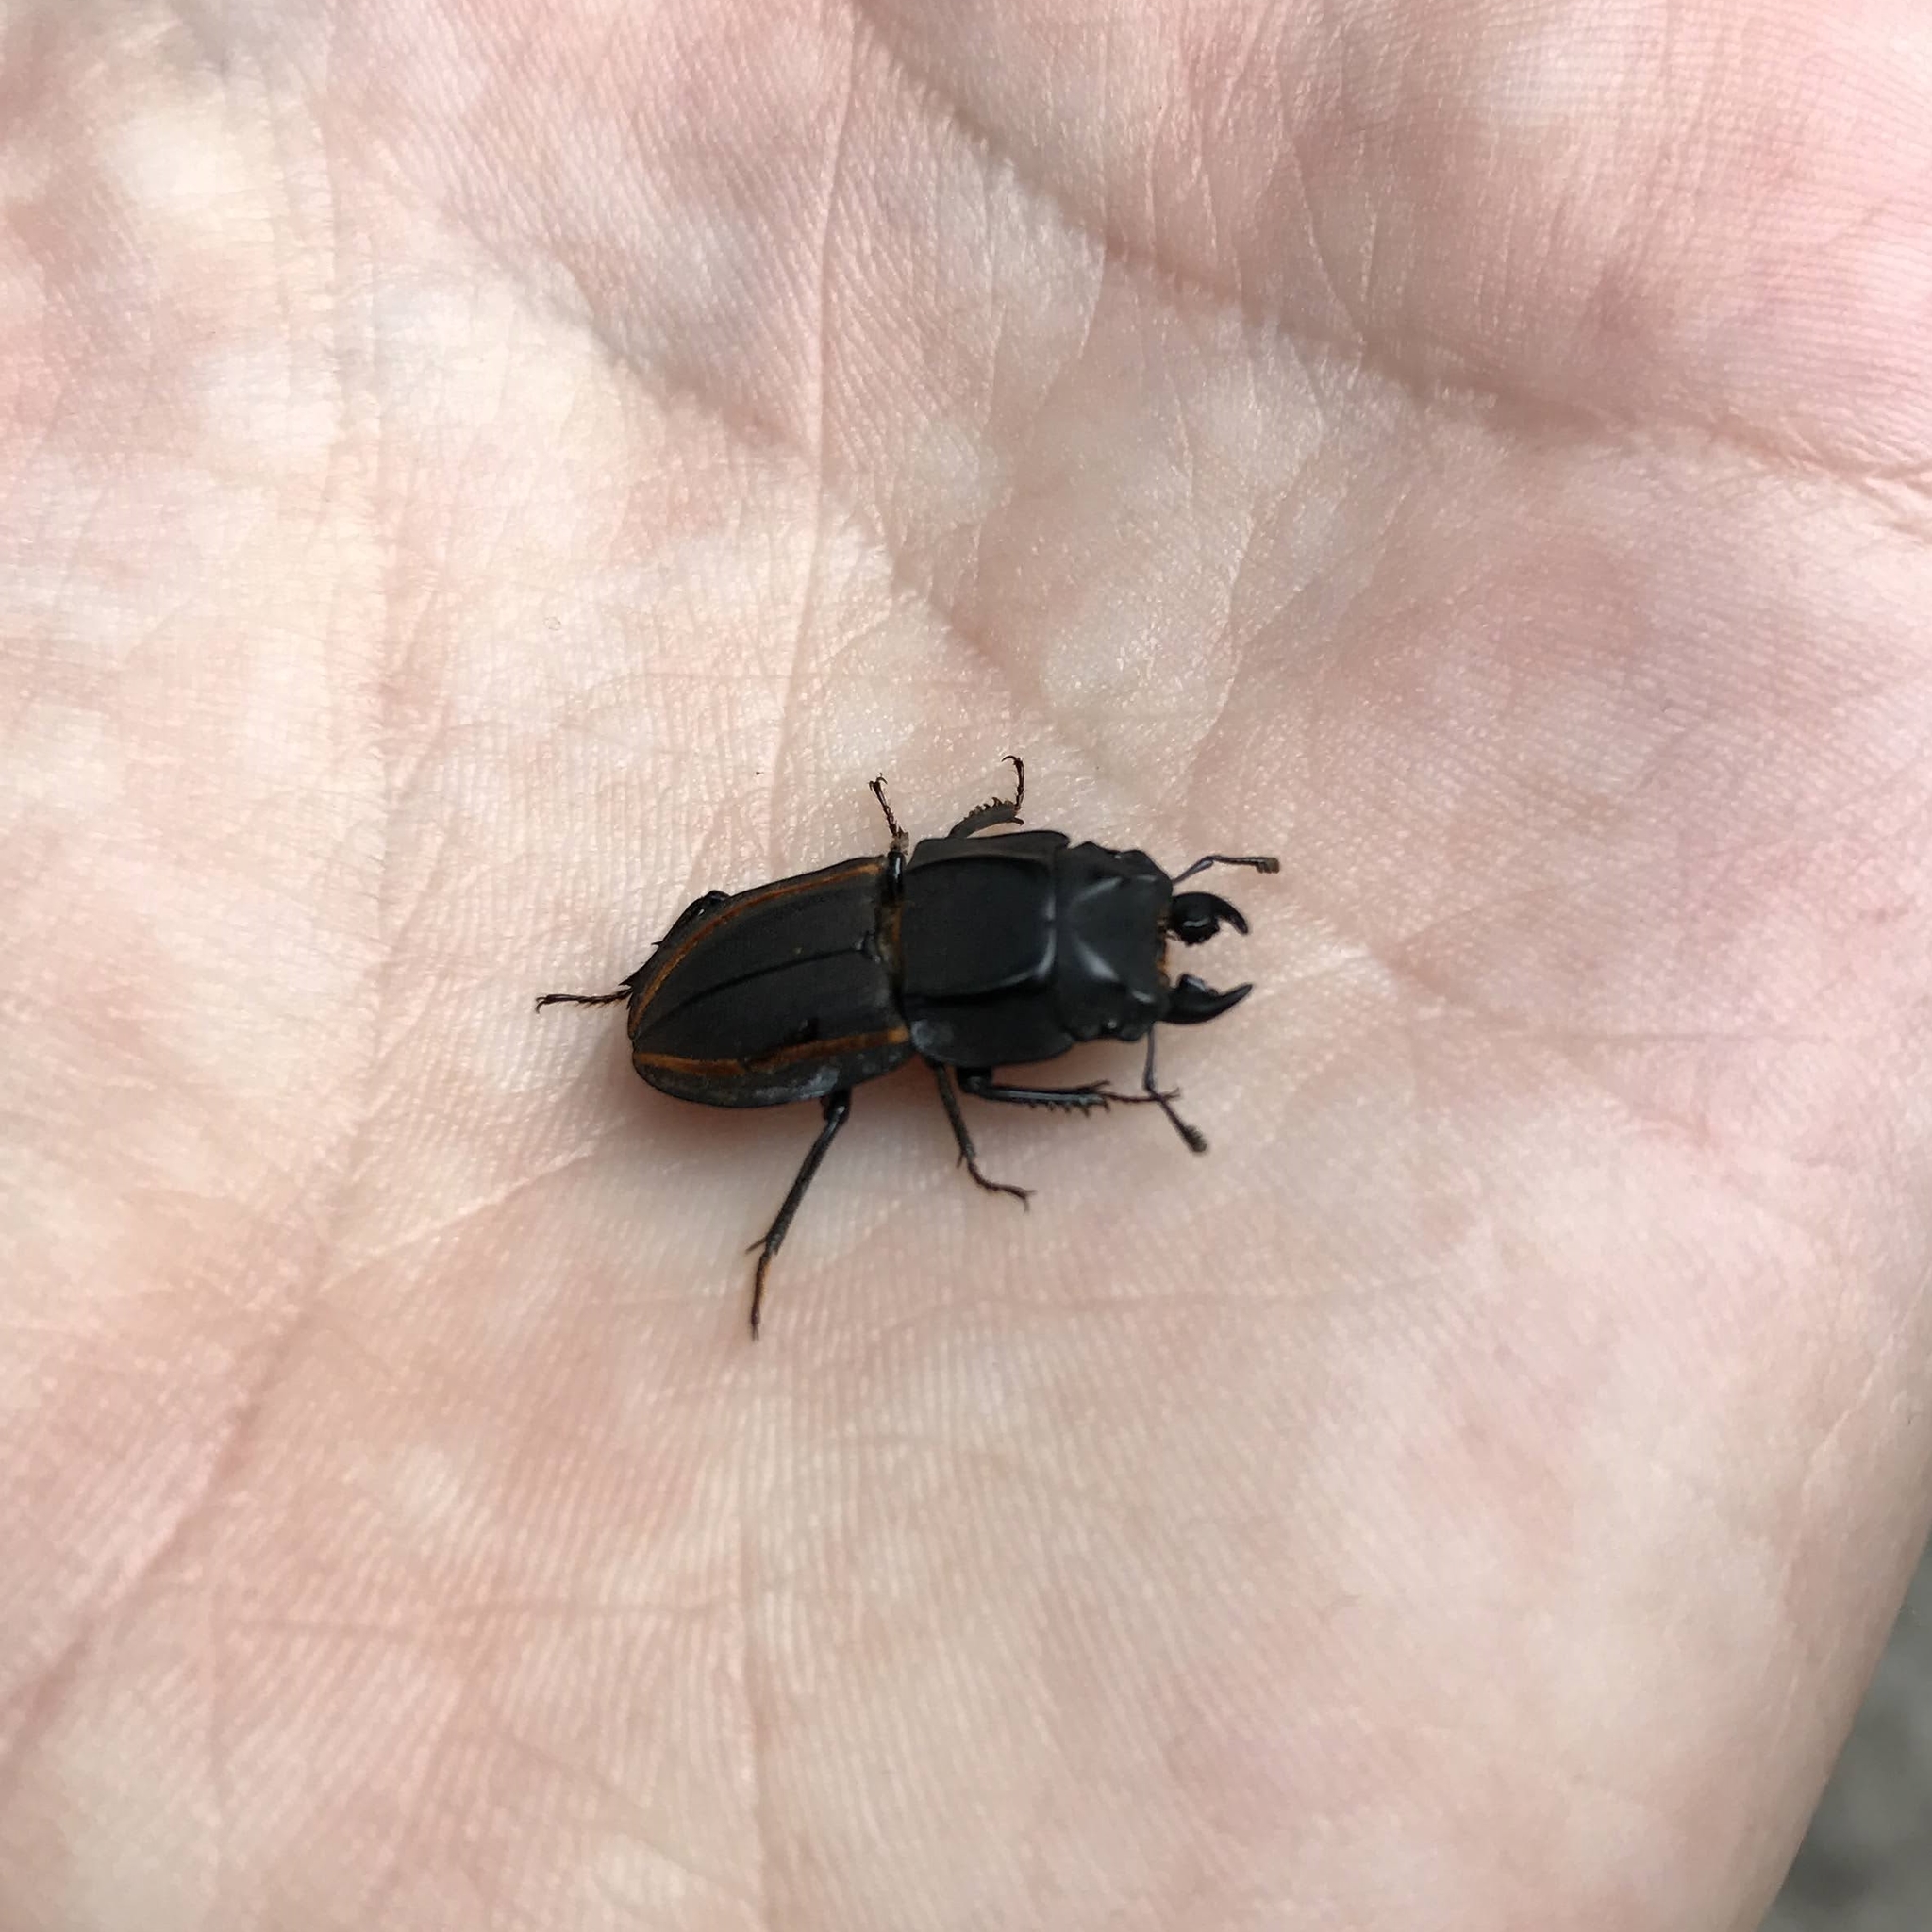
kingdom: Animalia
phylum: Arthropoda
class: Insecta
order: Coleoptera
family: Lucanidae
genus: Erichius
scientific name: Erichius vittatus
